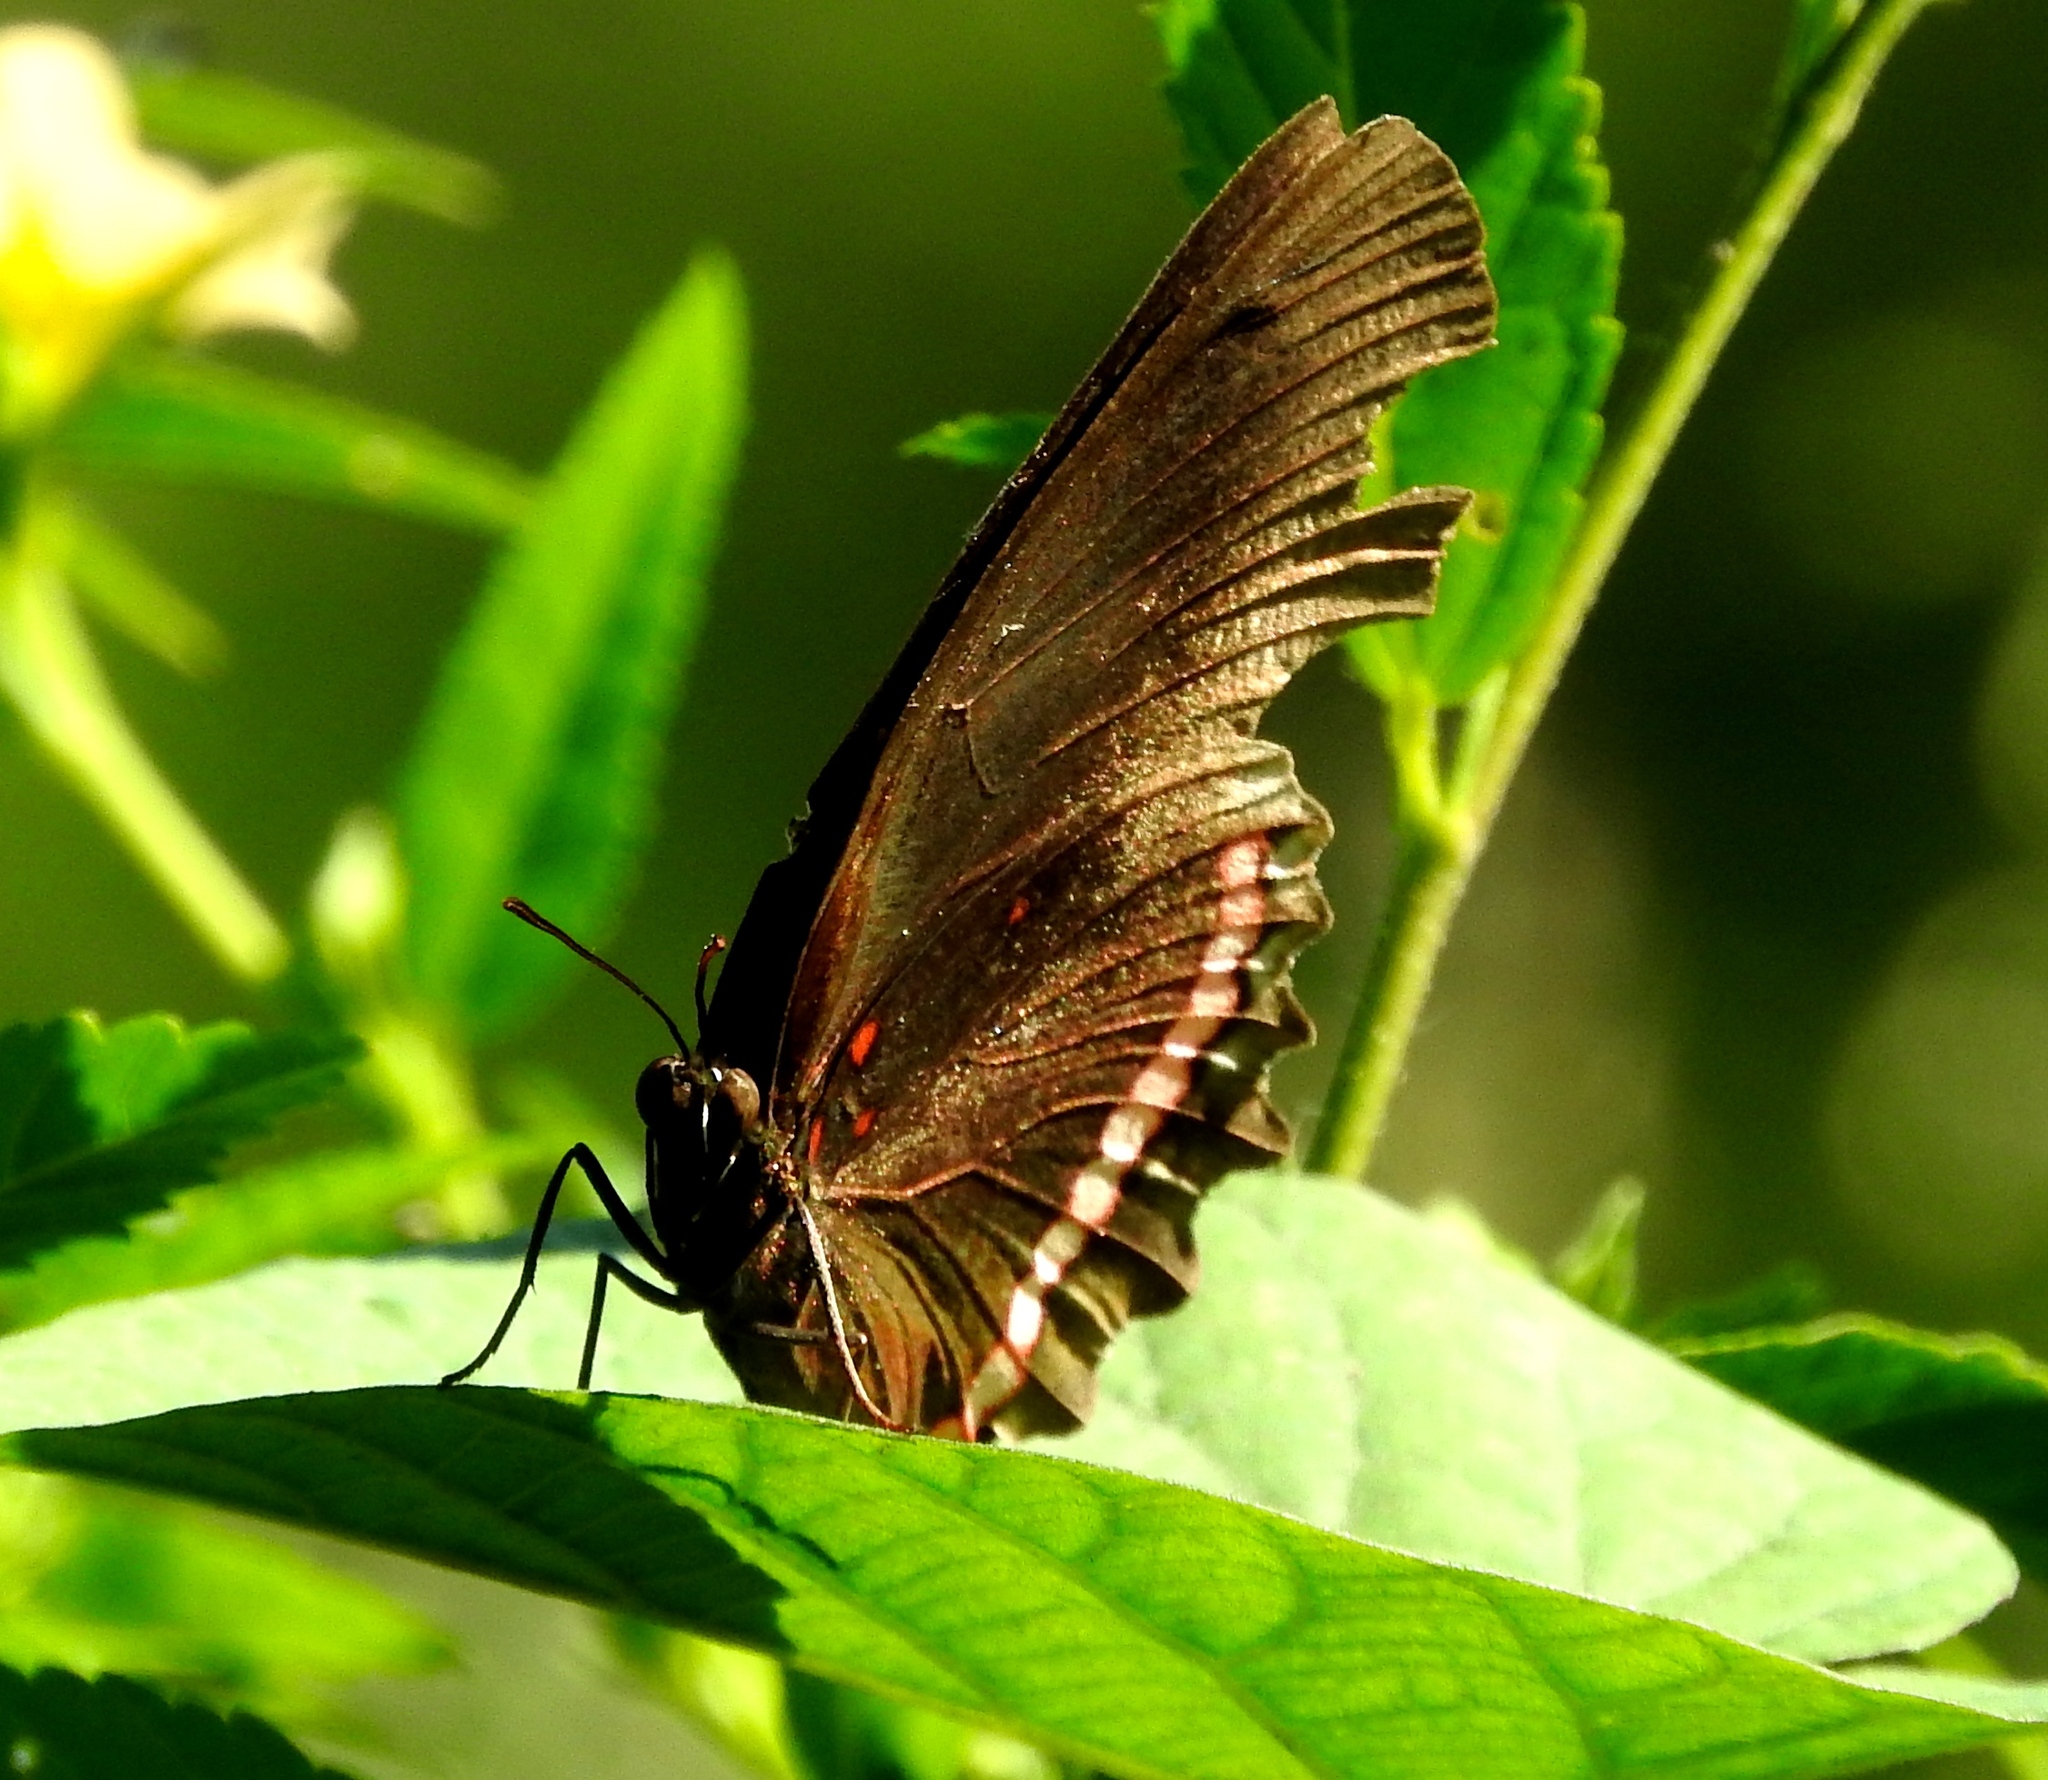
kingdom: Animalia
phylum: Arthropoda
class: Insecta
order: Lepidoptera
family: Nymphalidae
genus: Biblis
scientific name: Biblis aganisa
